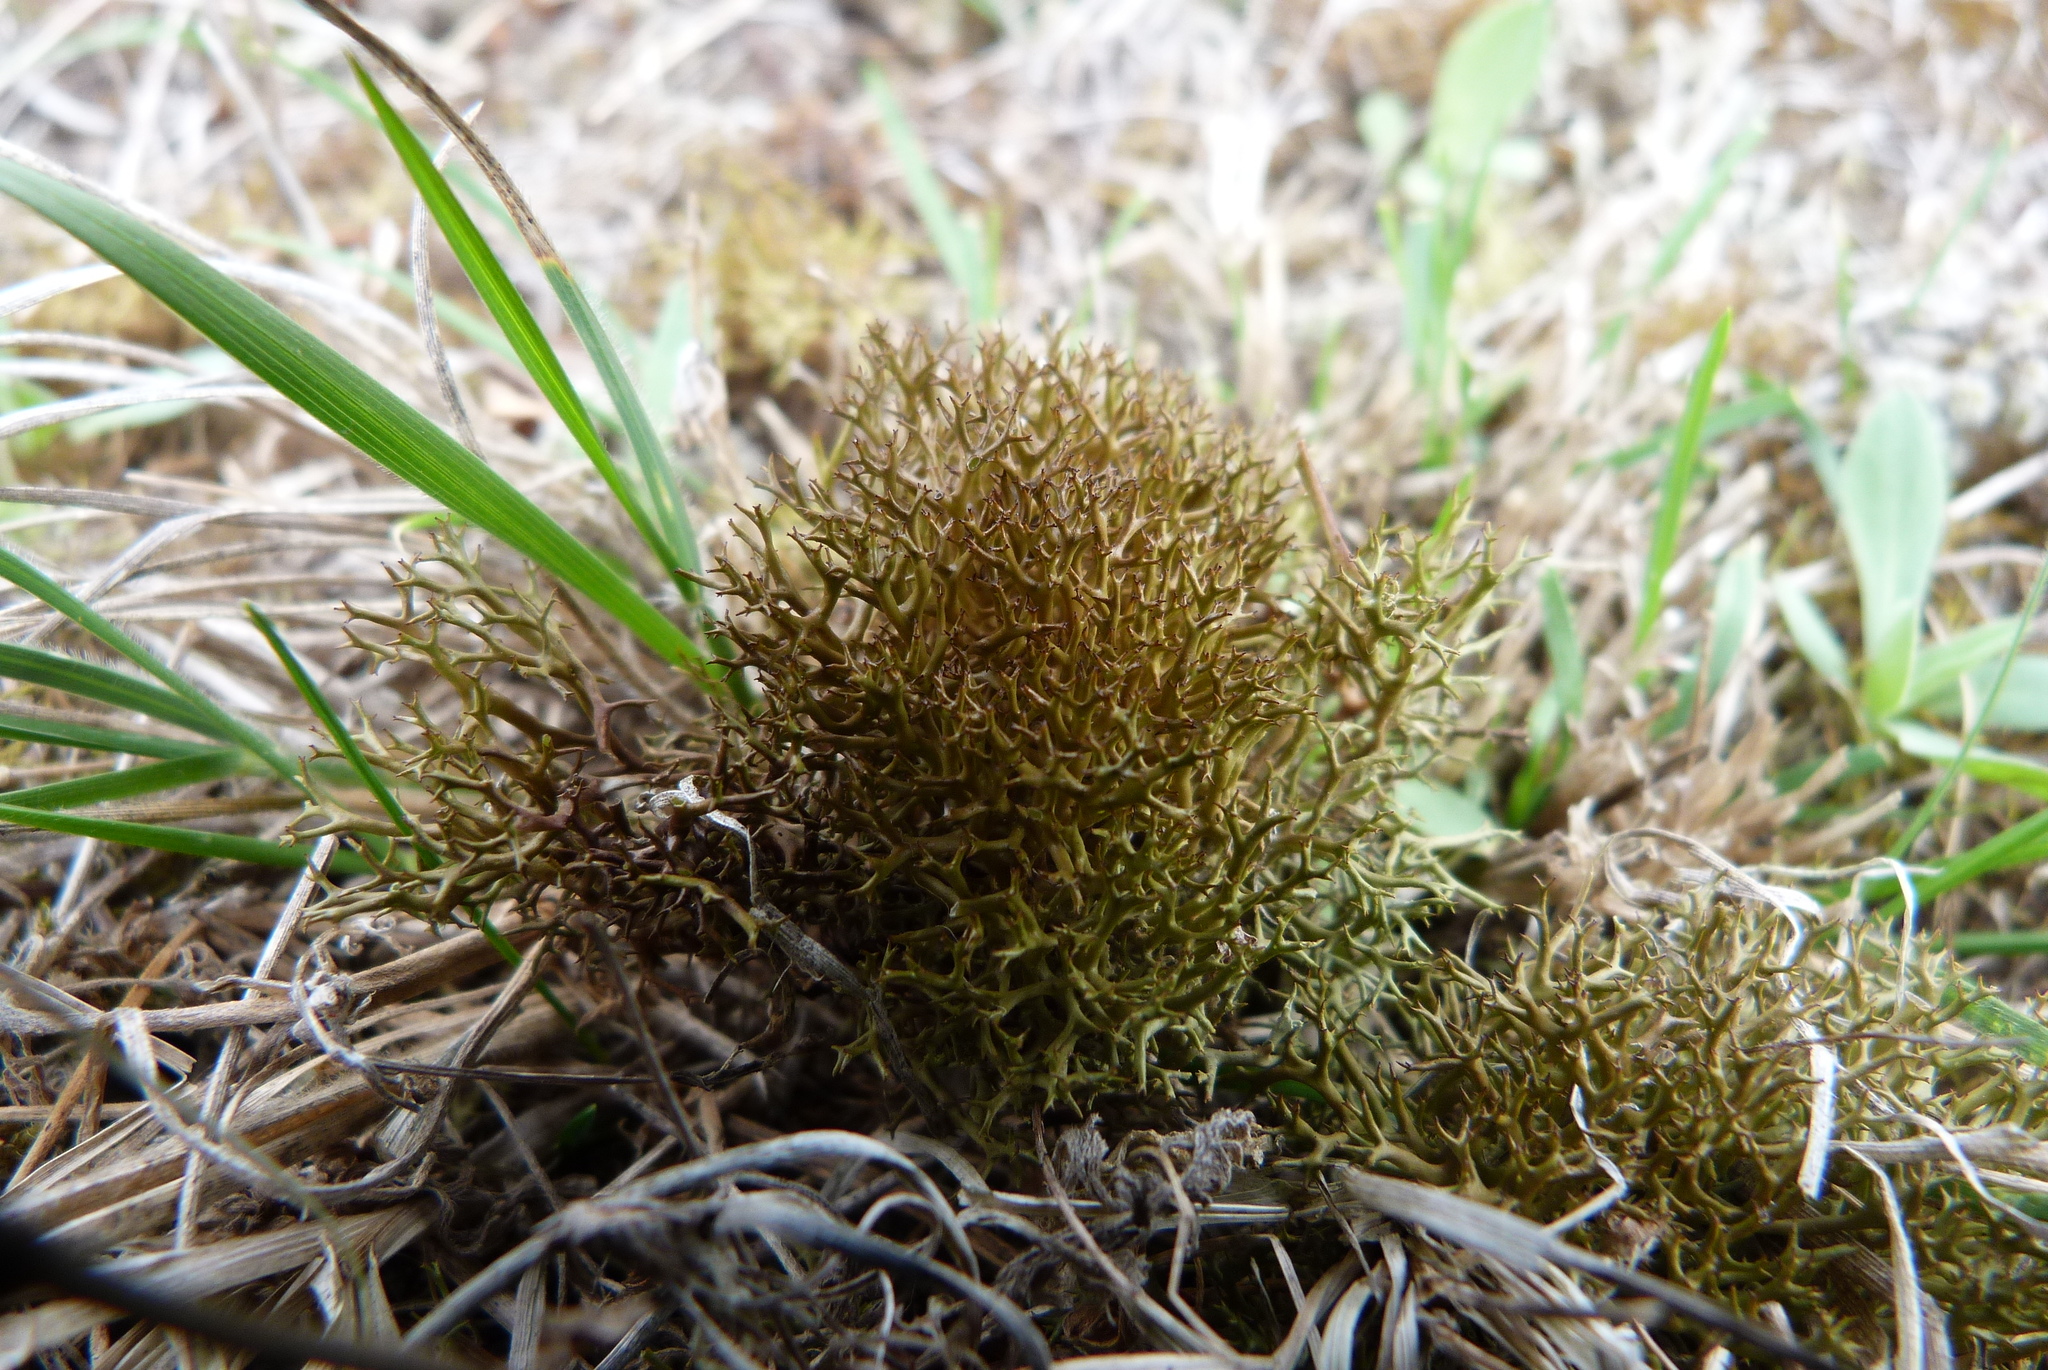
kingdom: Fungi
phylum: Ascomycota
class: Lecanoromycetes
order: Lecanorales
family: Cladoniaceae
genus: Cladia
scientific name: Cladia aggregata
